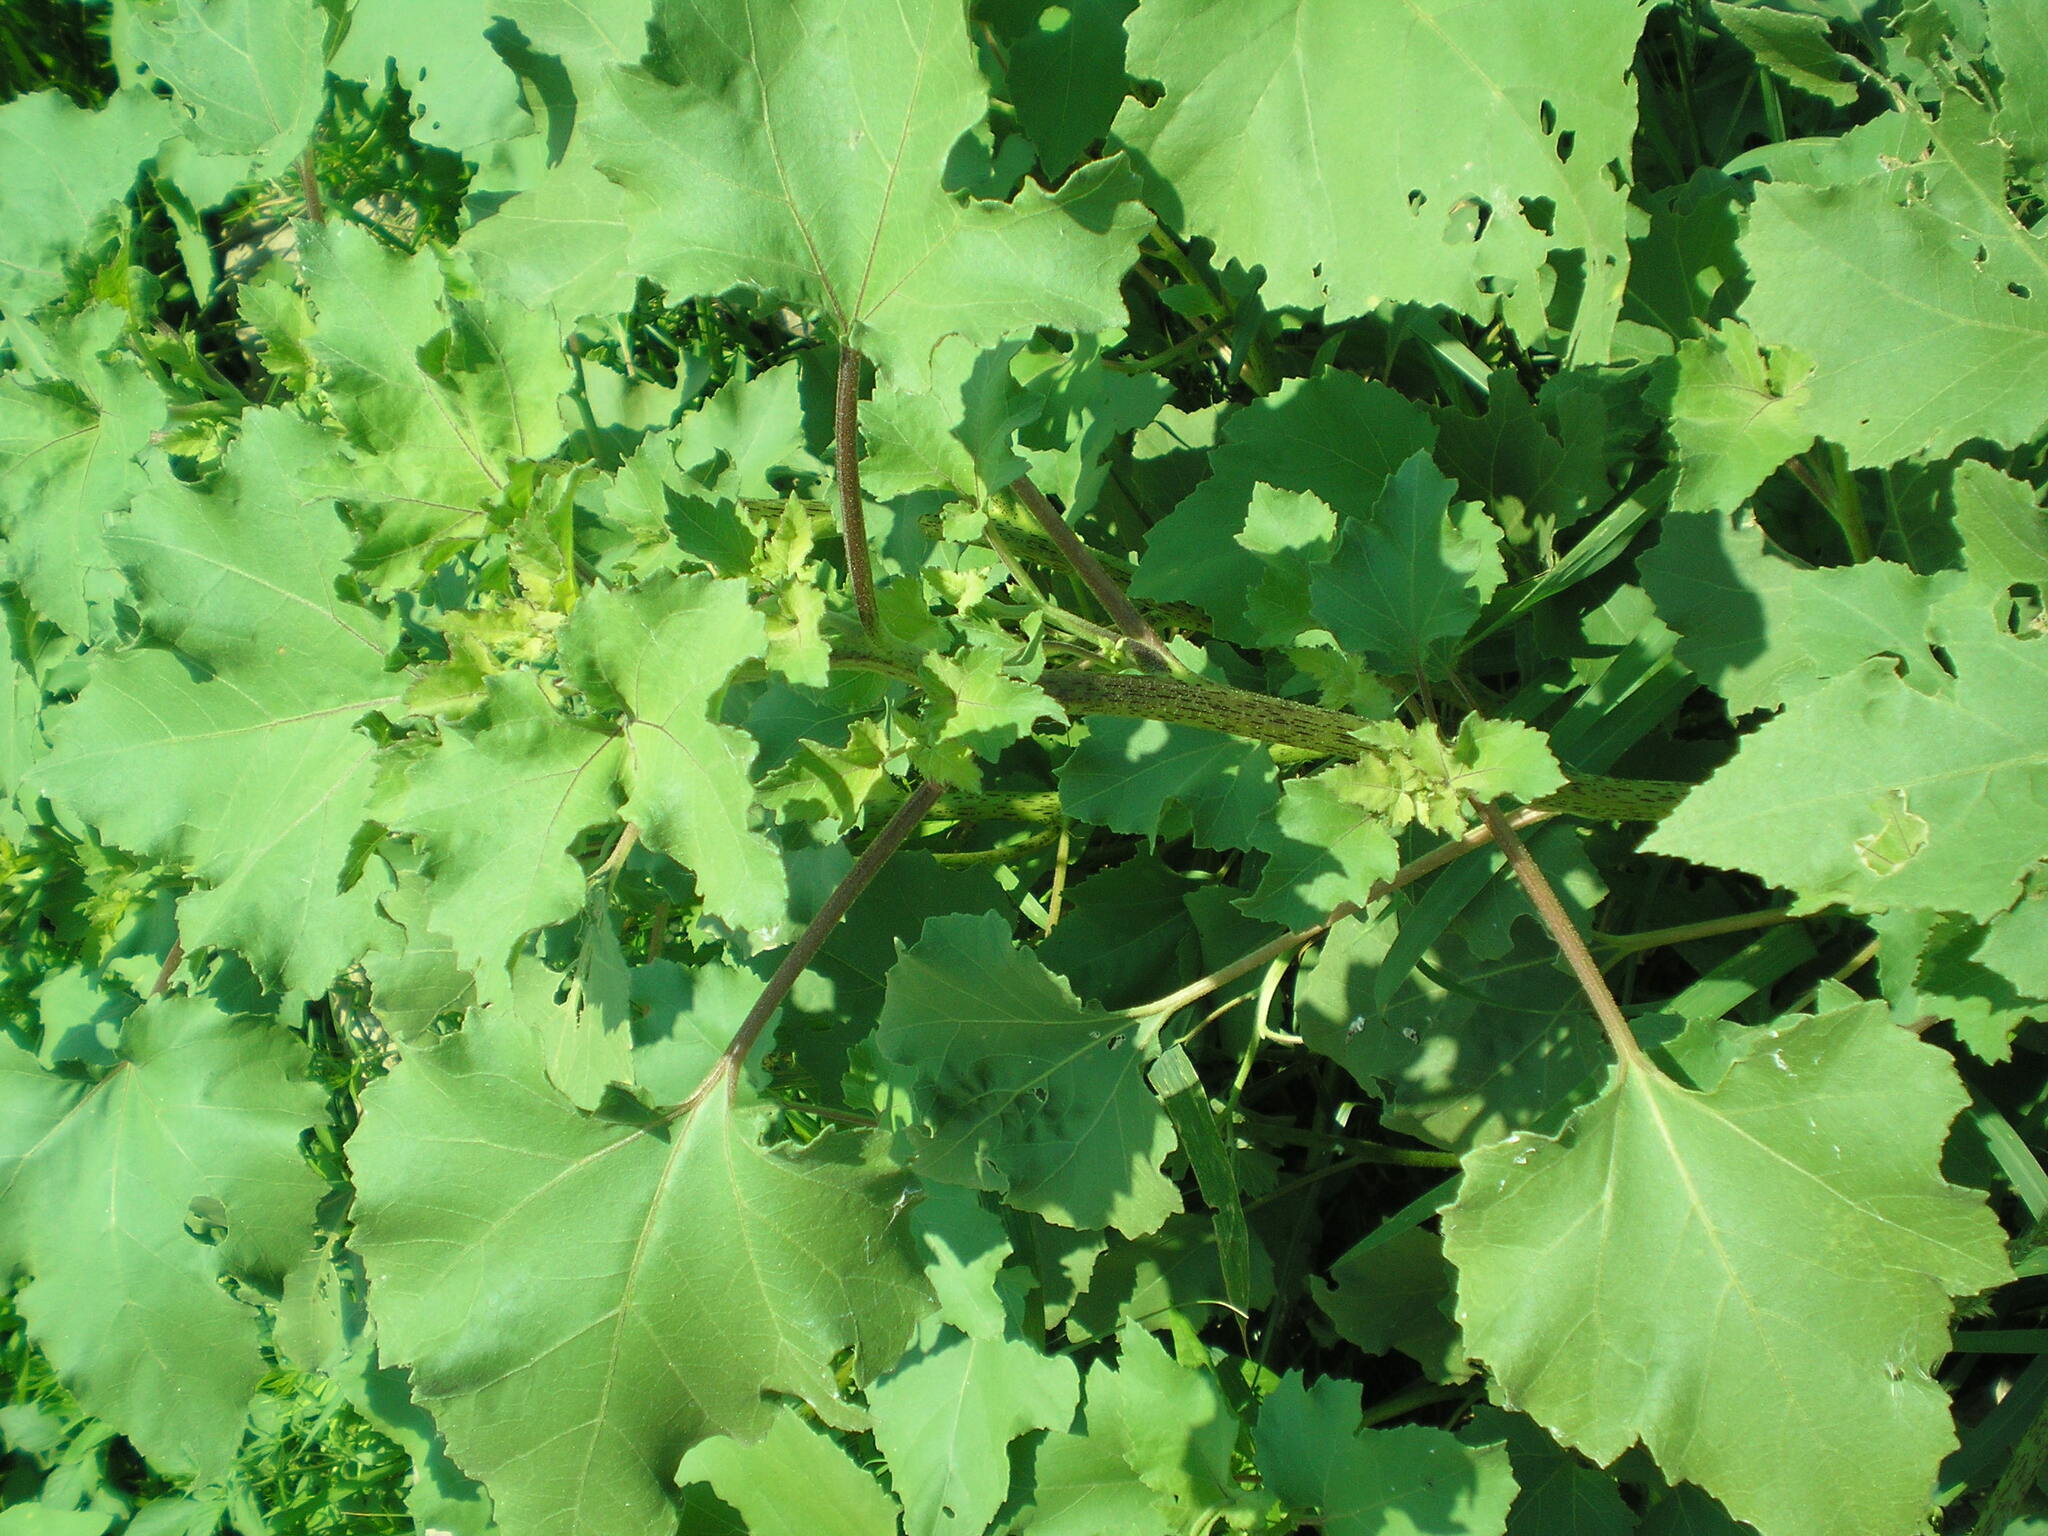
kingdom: Plantae
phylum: Tracheophyta
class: Magnoliopsida
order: Asterales
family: Asteraceae
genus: Xanthium
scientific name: Xanthium orientale
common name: Californian burr
